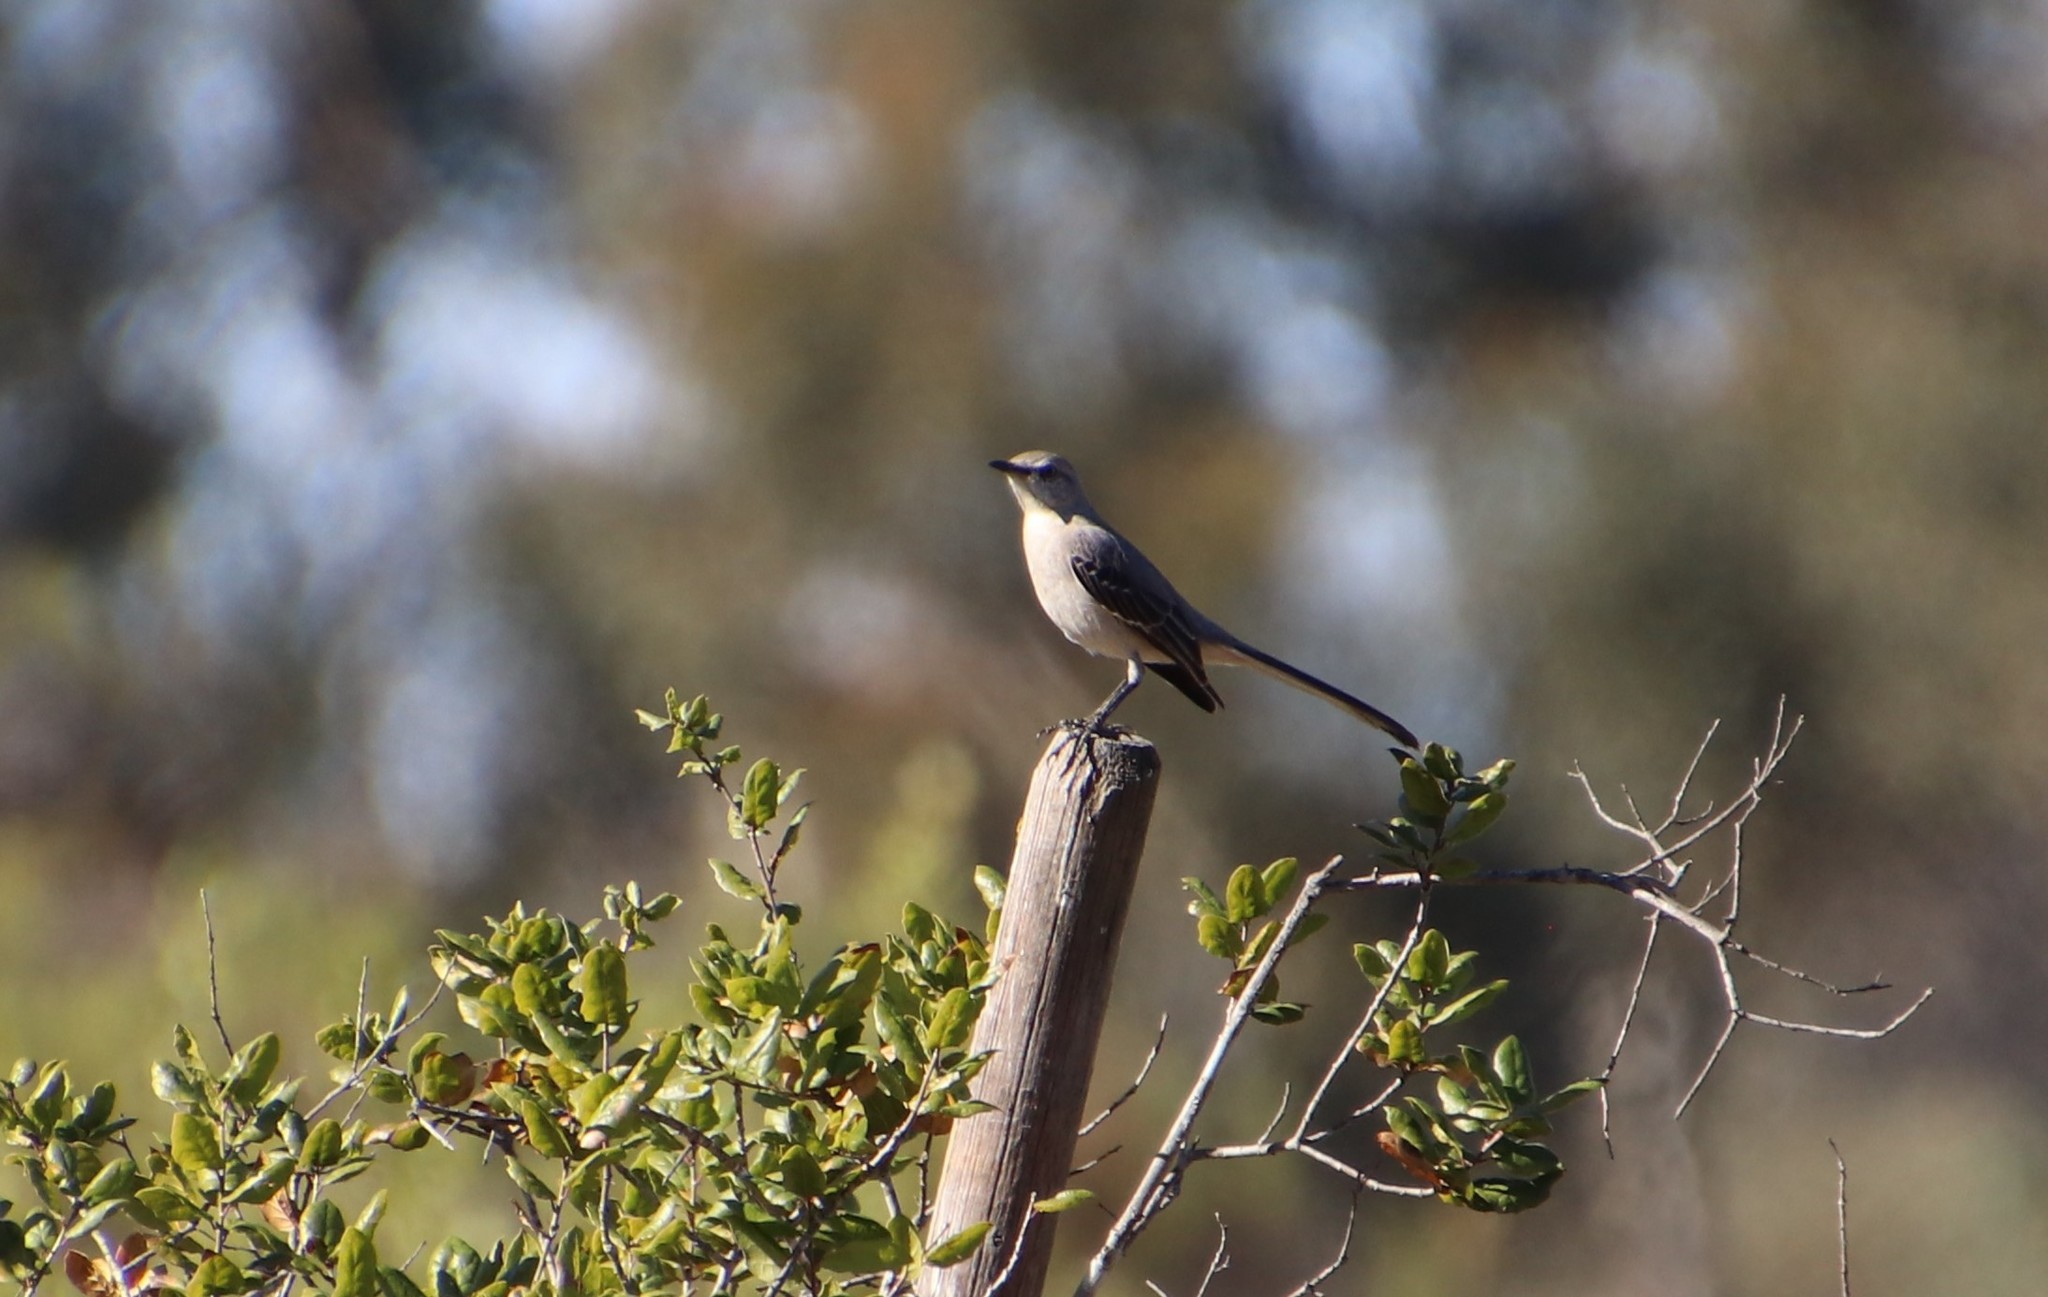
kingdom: Animalia
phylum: Chordata
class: Aves
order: Passeriformes
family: Mimidae
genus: Mimus
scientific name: Mimus polyglottos
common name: Northern mockingbird
